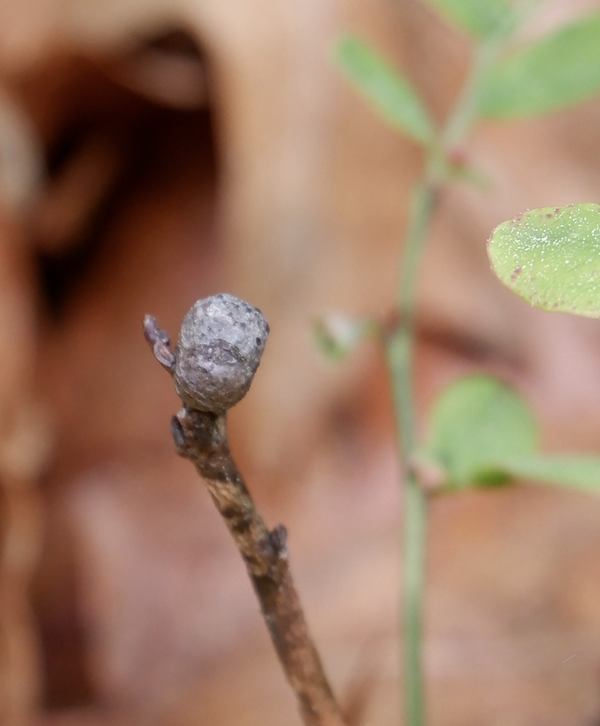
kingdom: Animalia
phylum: Arthropoda
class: Insecta
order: Hymenoptera
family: Pteromalidae
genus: Hemadas
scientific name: Hemadas nubilipennis
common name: Blueberry stem gall wasp
